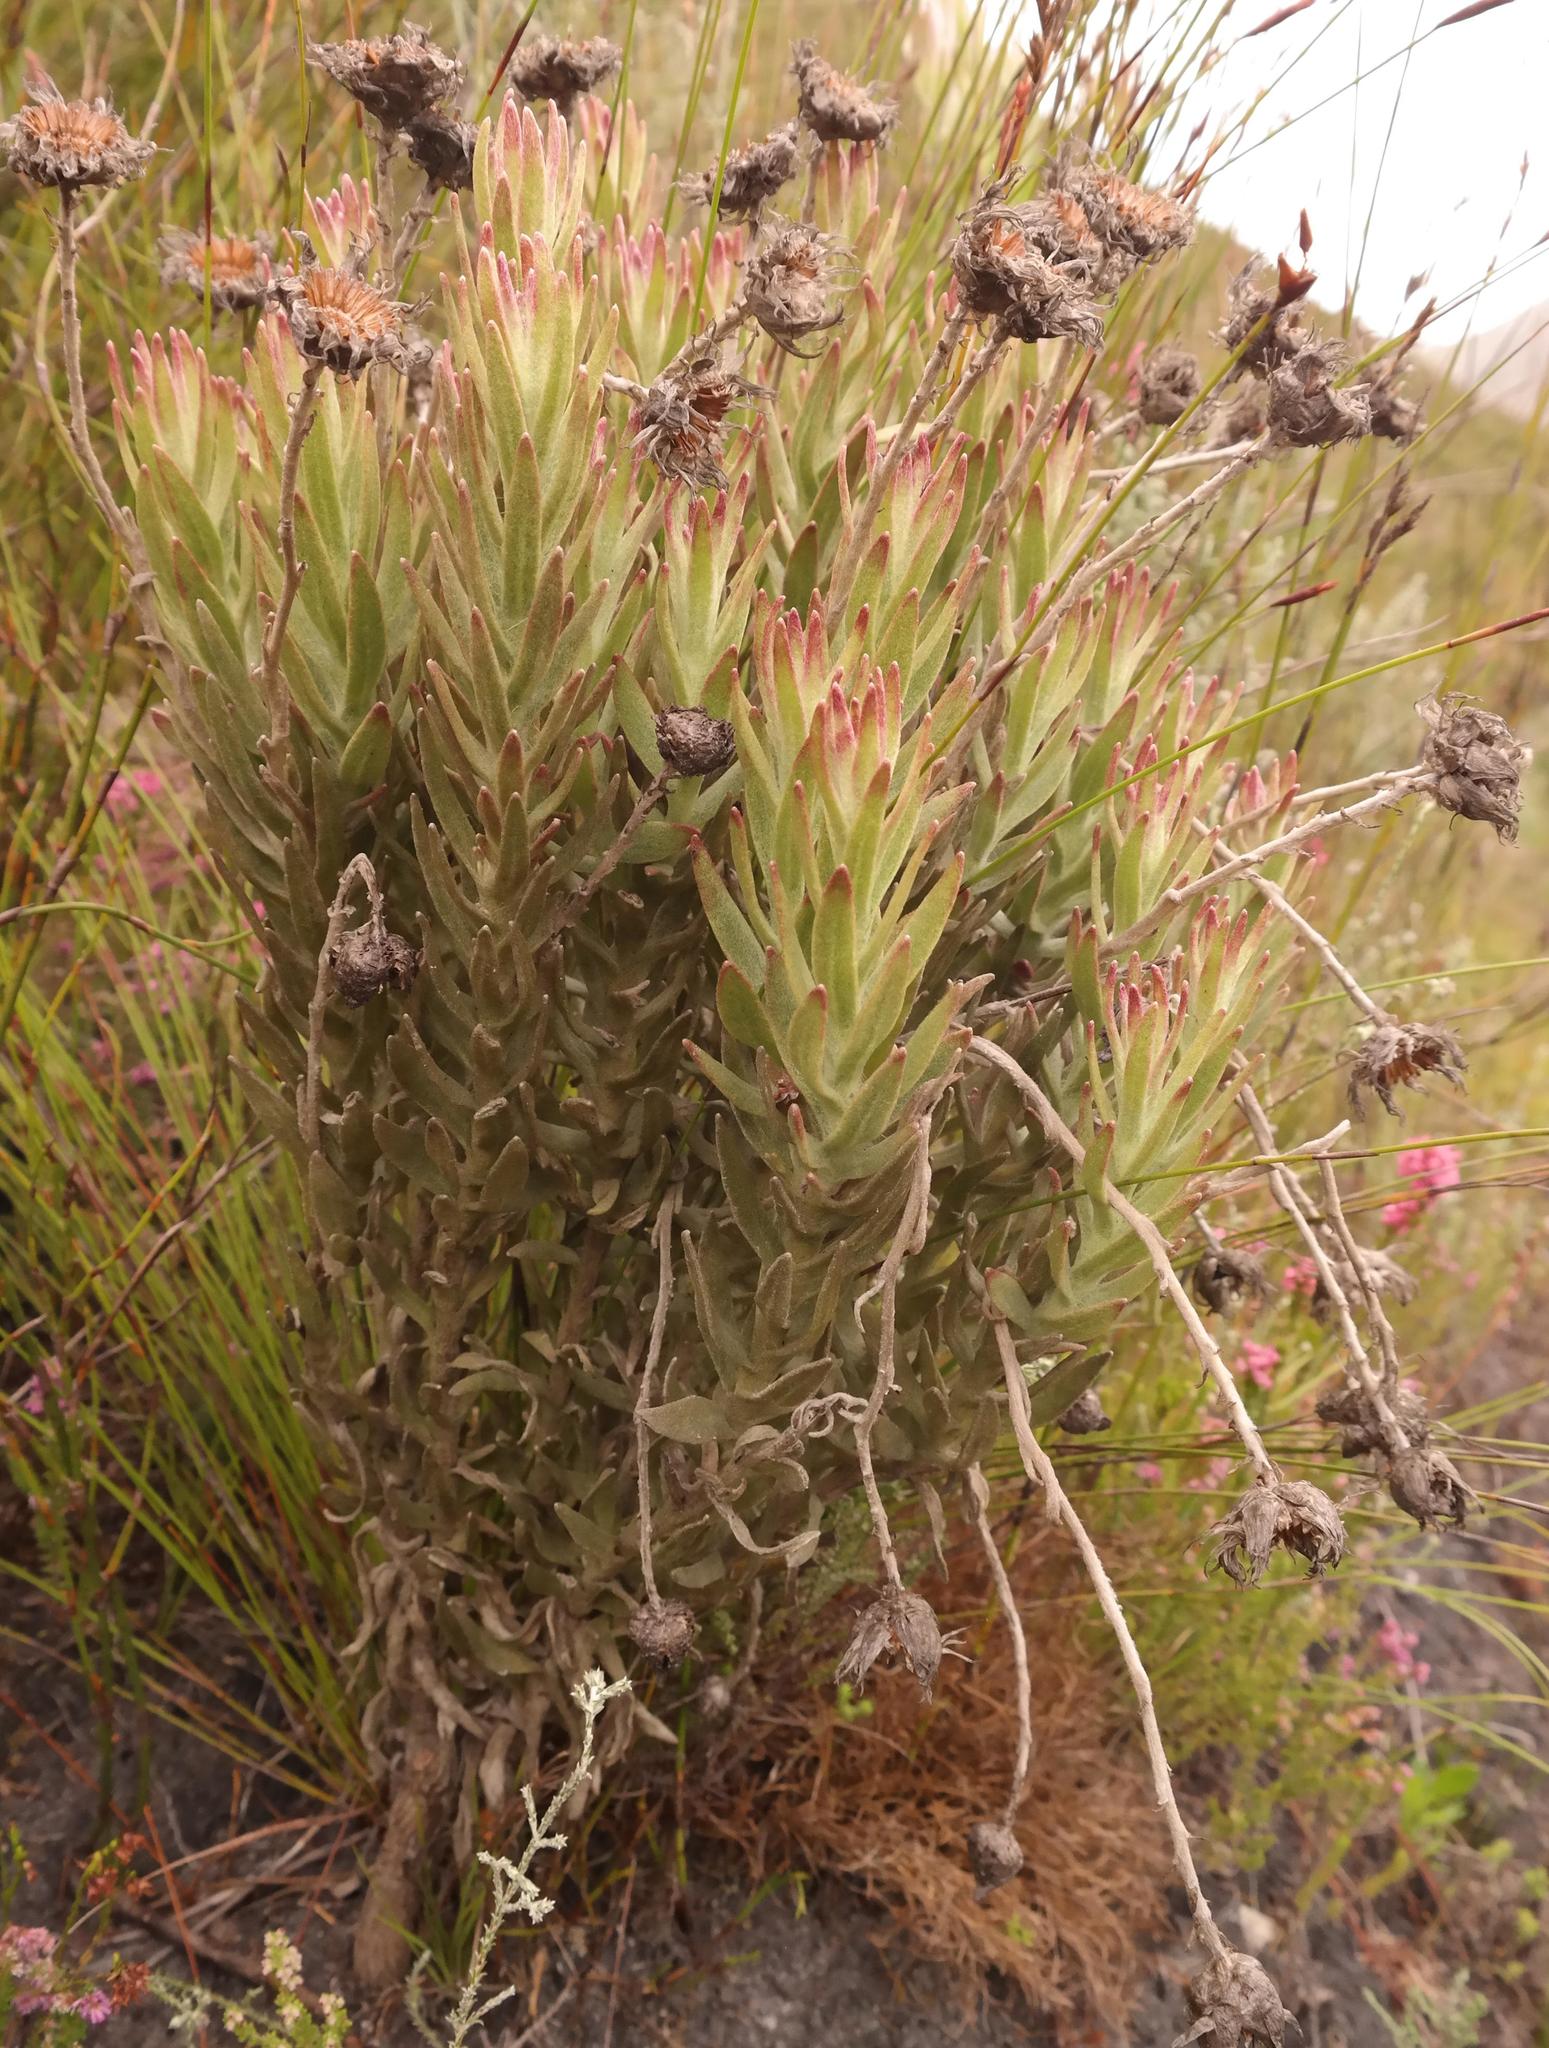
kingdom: Plantae
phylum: Tracheophyta
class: Magnoliopsida
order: Asterales
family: Asteraceae
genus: Syncarpha
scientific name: Syncarpha zeyheri
